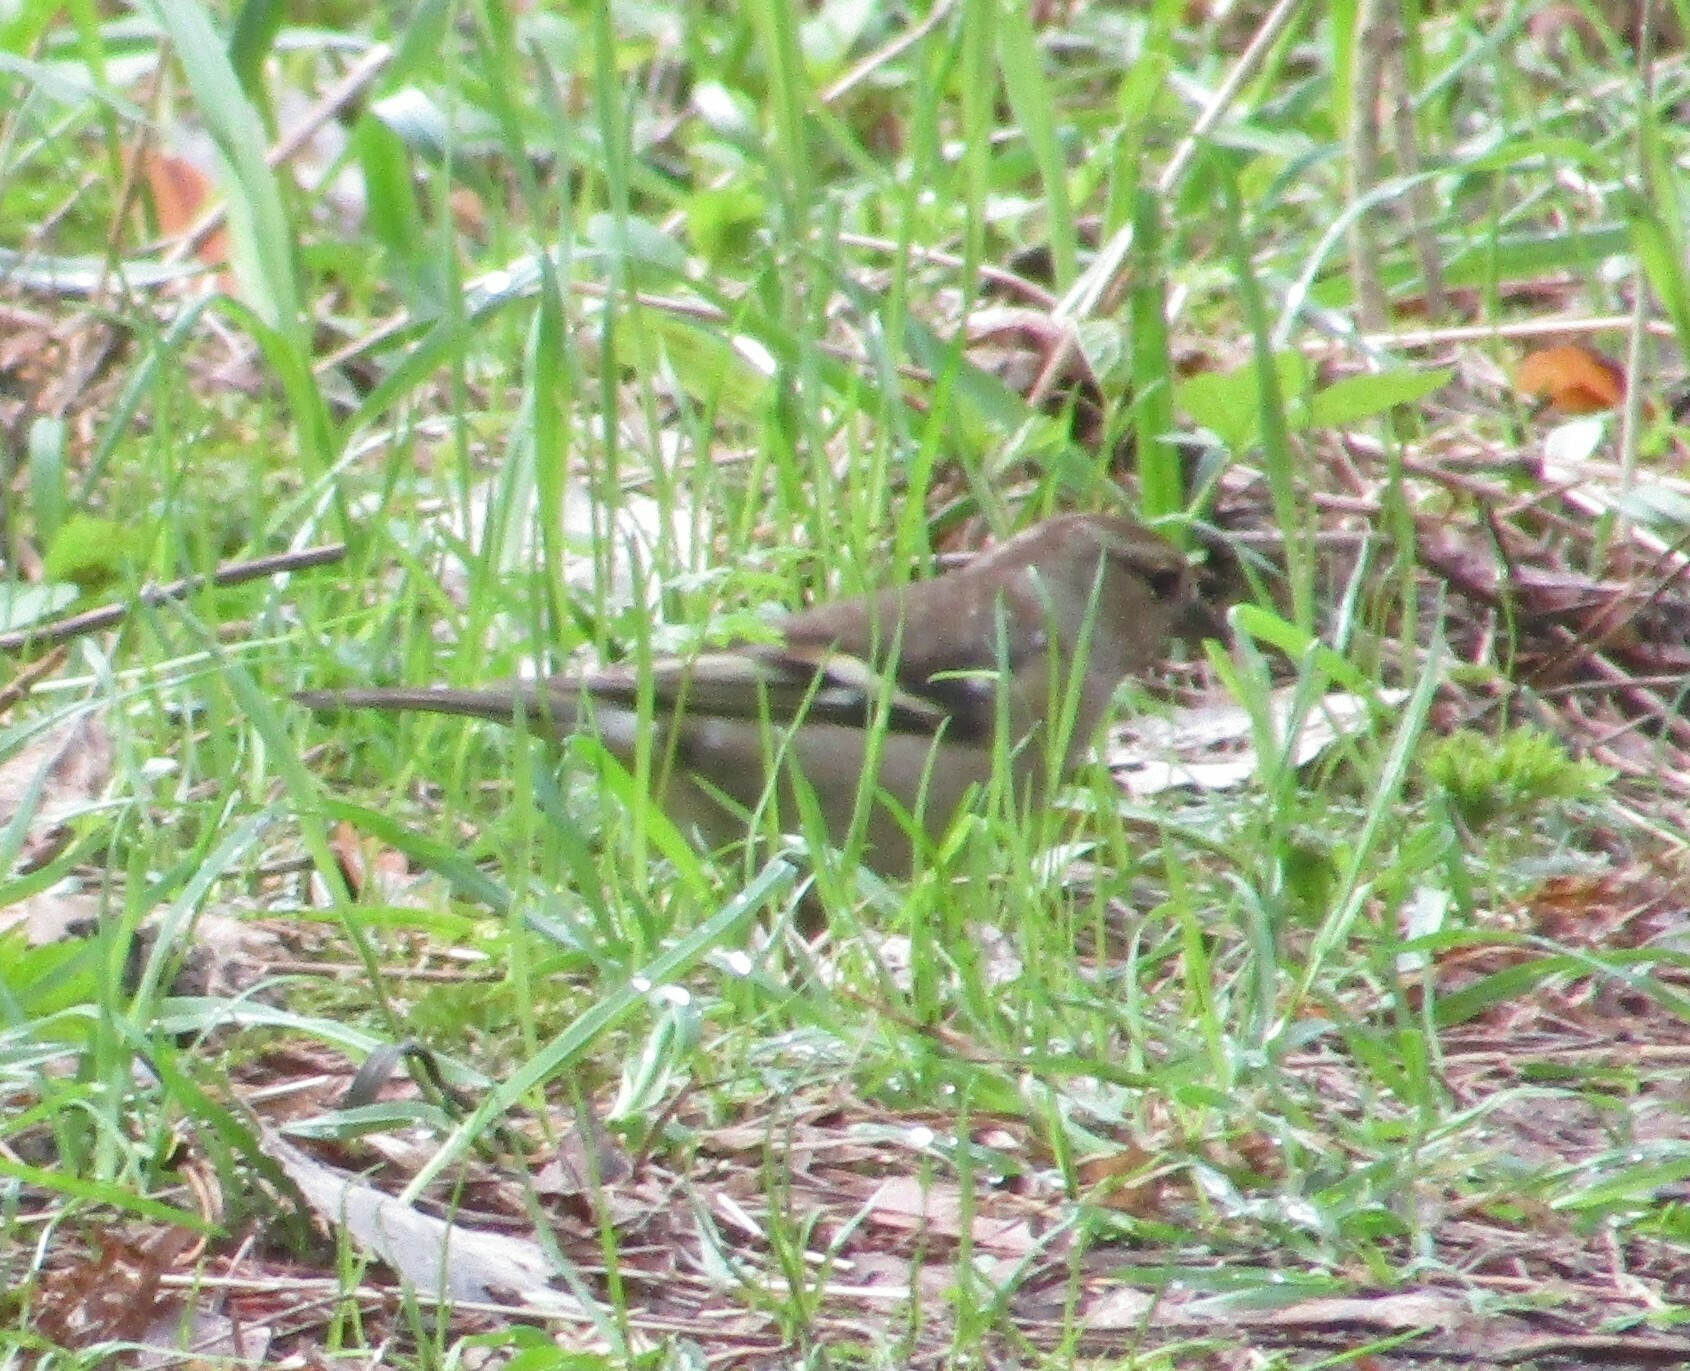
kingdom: Animalia
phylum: Chordata
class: Aves
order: Passeriformes
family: Fringillidae
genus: Fringilla
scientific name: Fringilla coelebs
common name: Common chaffinch
